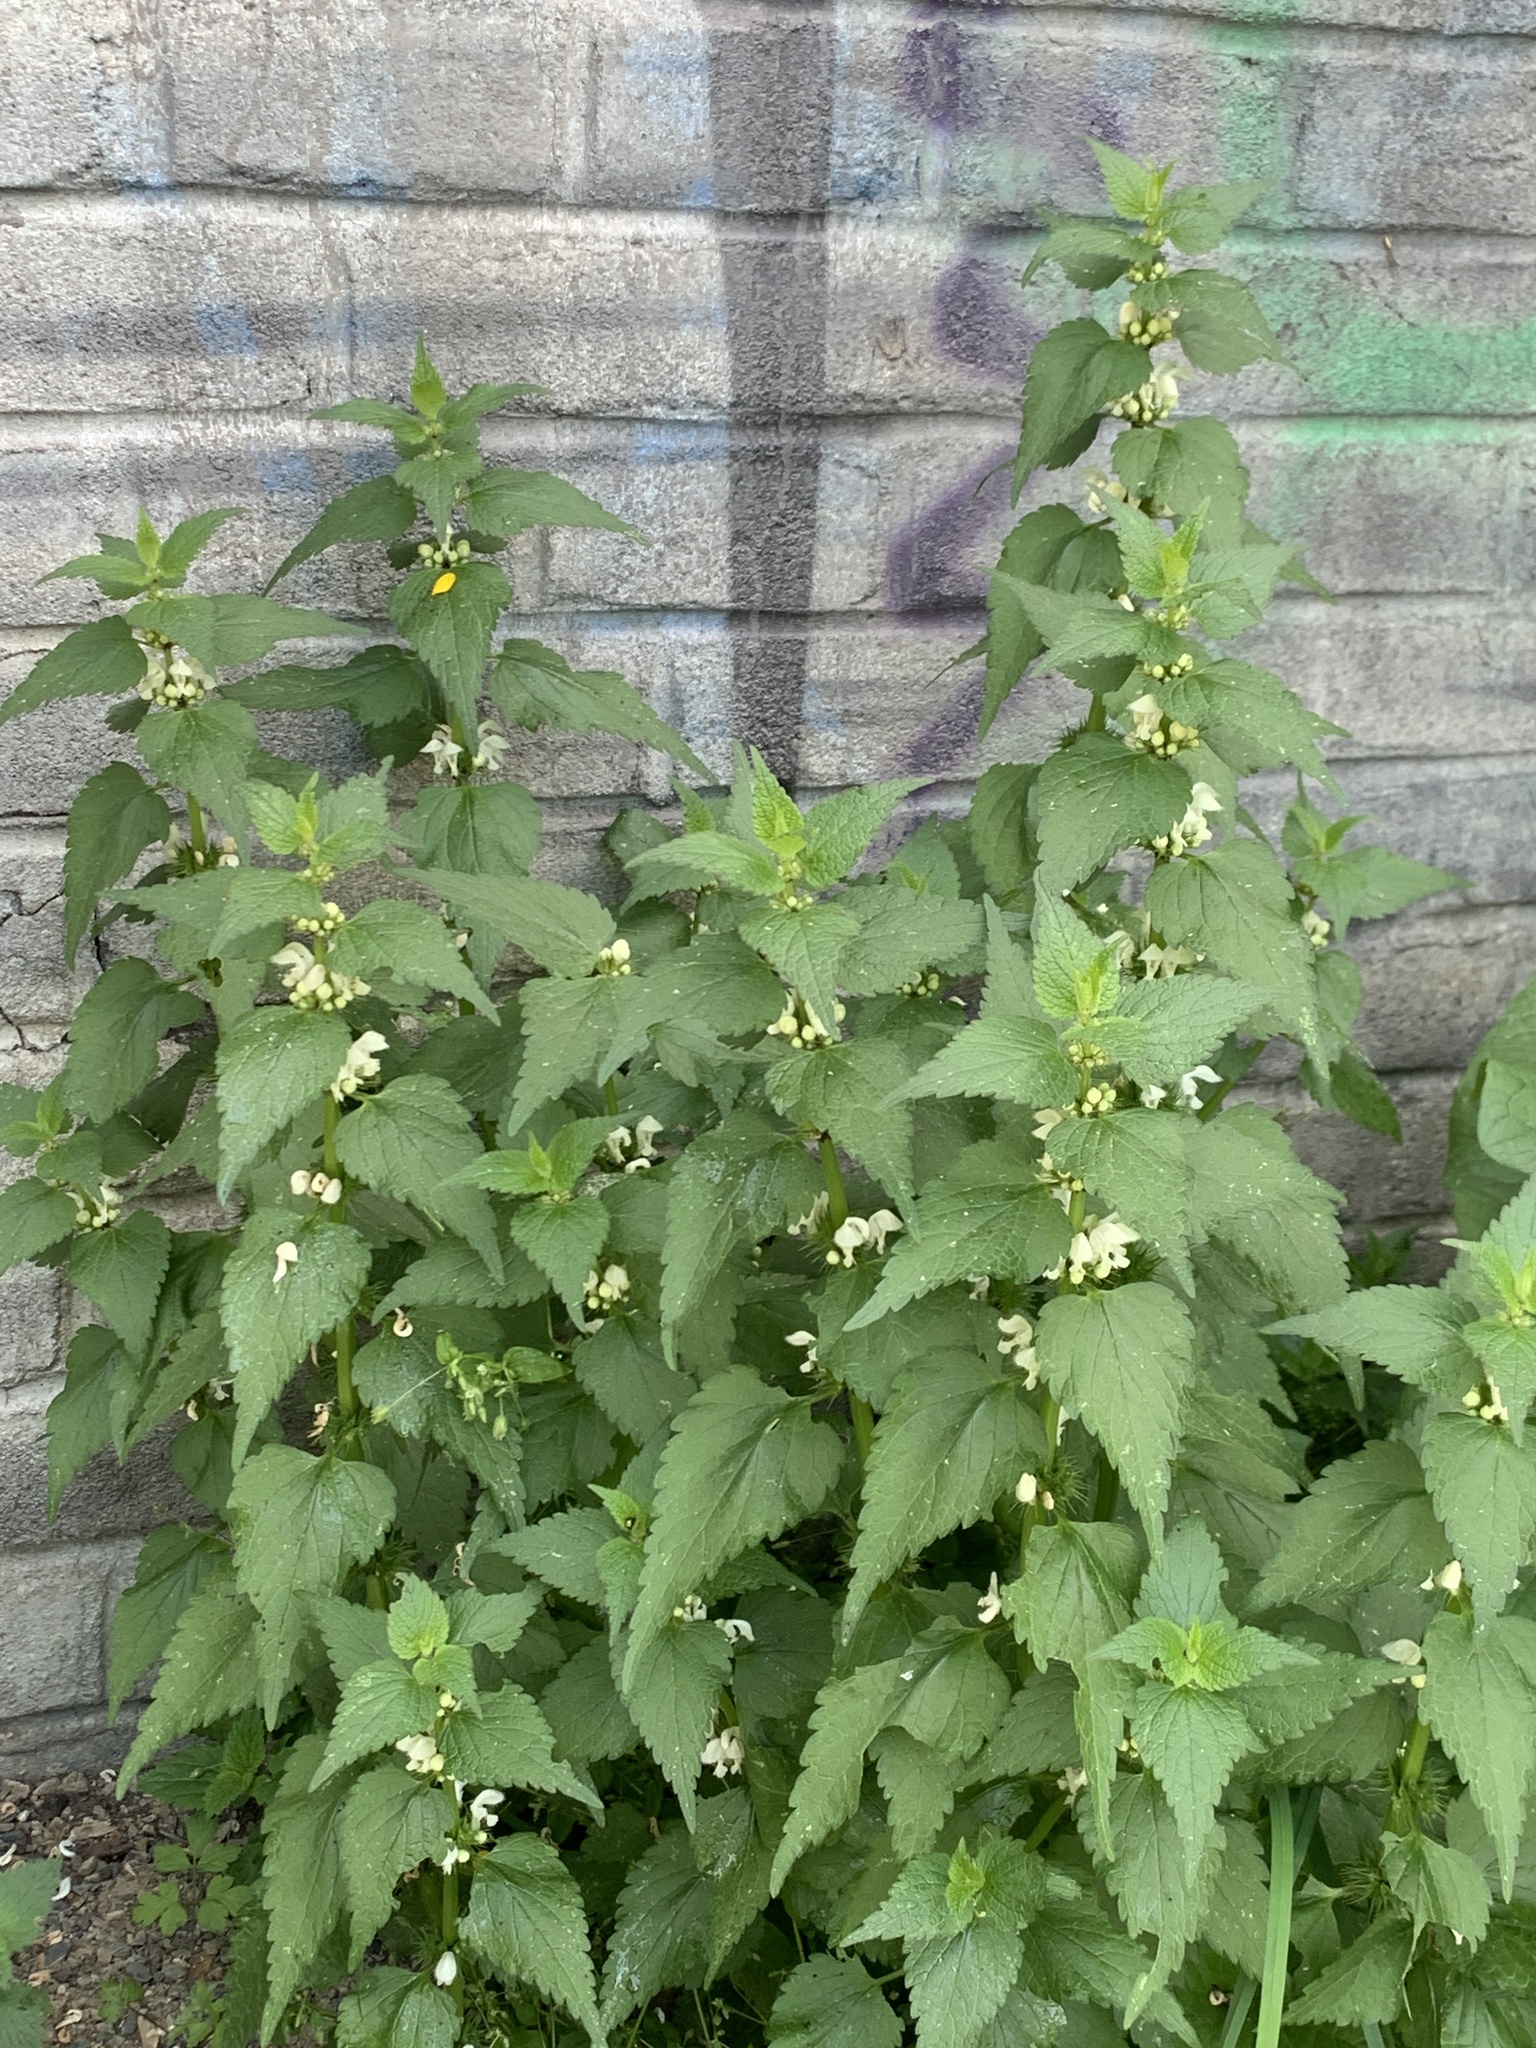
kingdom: Plantae
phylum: Tracheophyta
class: Magnoliopsida
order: Lamiales
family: Lamiaceae
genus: Lamium
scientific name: Lamium album
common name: White dead-nettle
